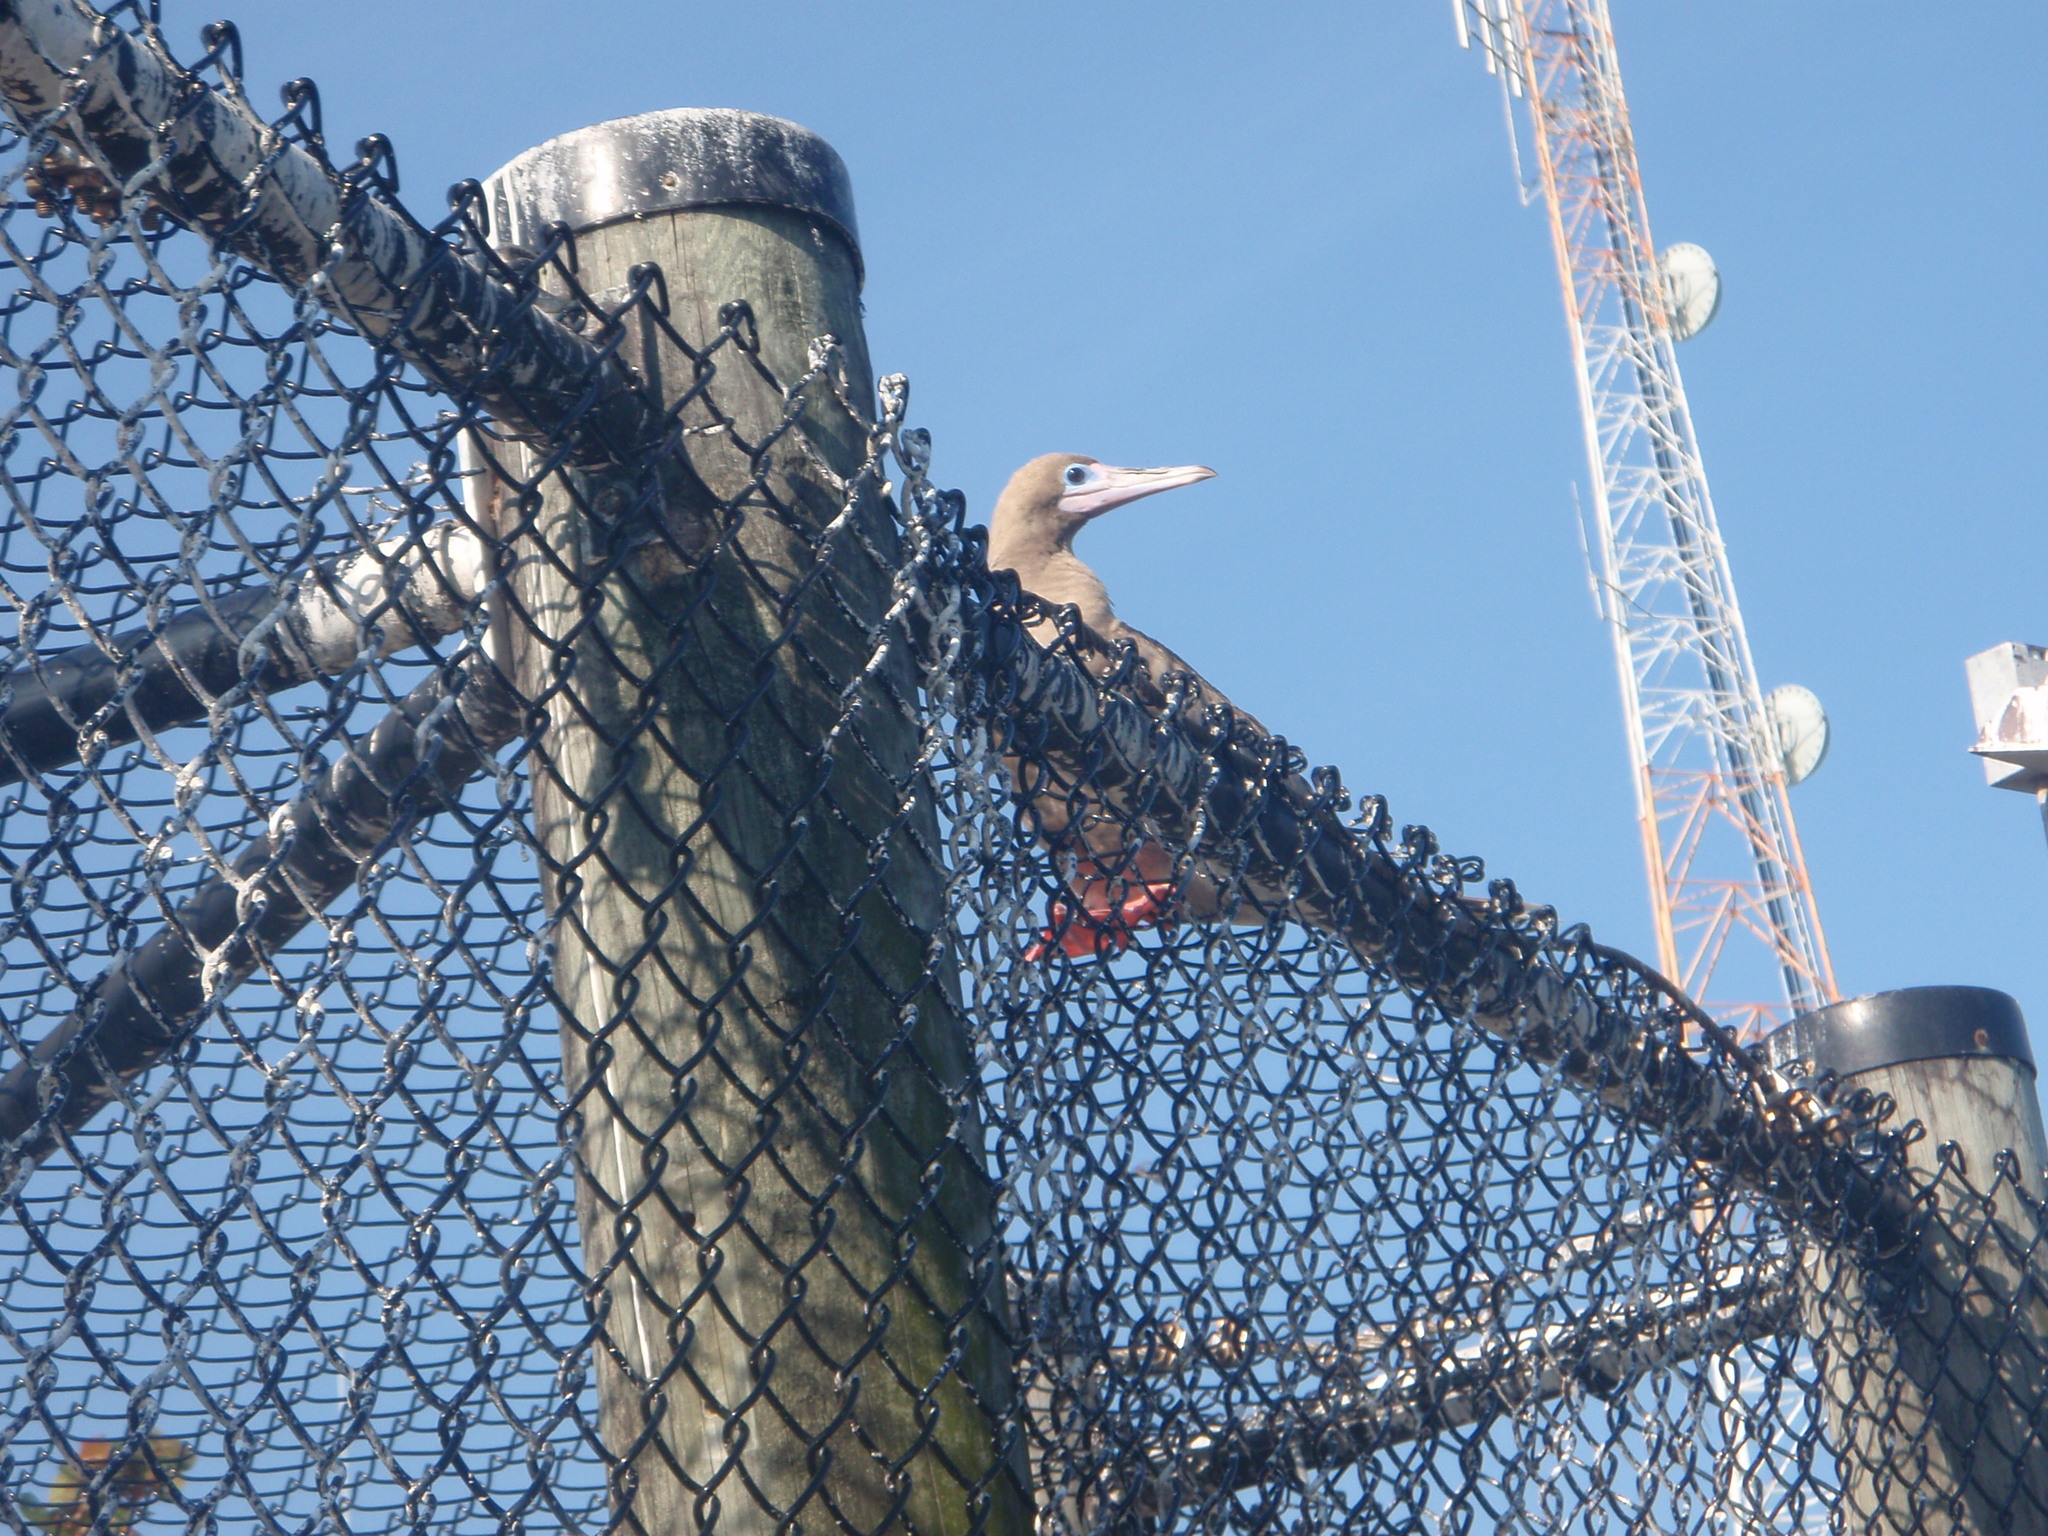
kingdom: Animalia
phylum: Chordata
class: Aves
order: Suliformes
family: Sulidae
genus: Sula
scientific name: Sula sula
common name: Red-footed booby
